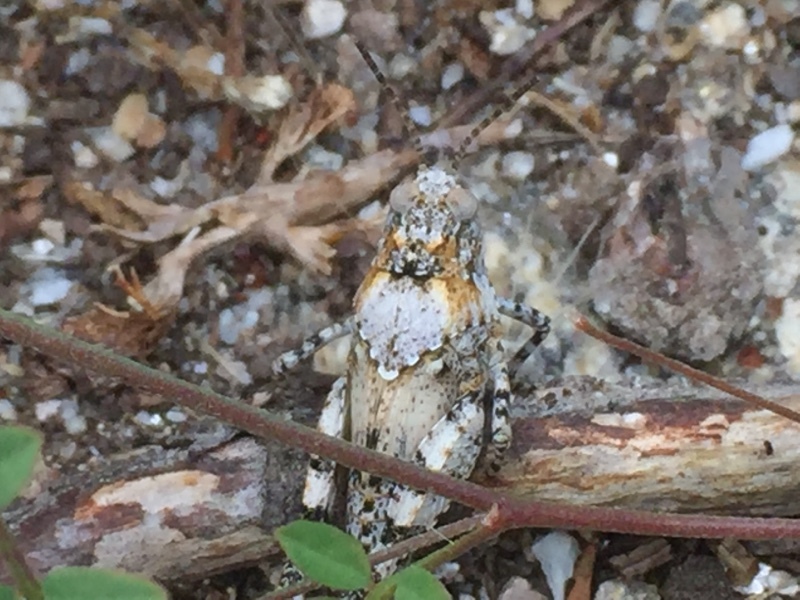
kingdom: Animalia
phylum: Arthropoda
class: Insecta
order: Orthoptera
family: Acrididae
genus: Oedipoda
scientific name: Oedipoda caerulescens
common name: Blue-winged grasshopper
